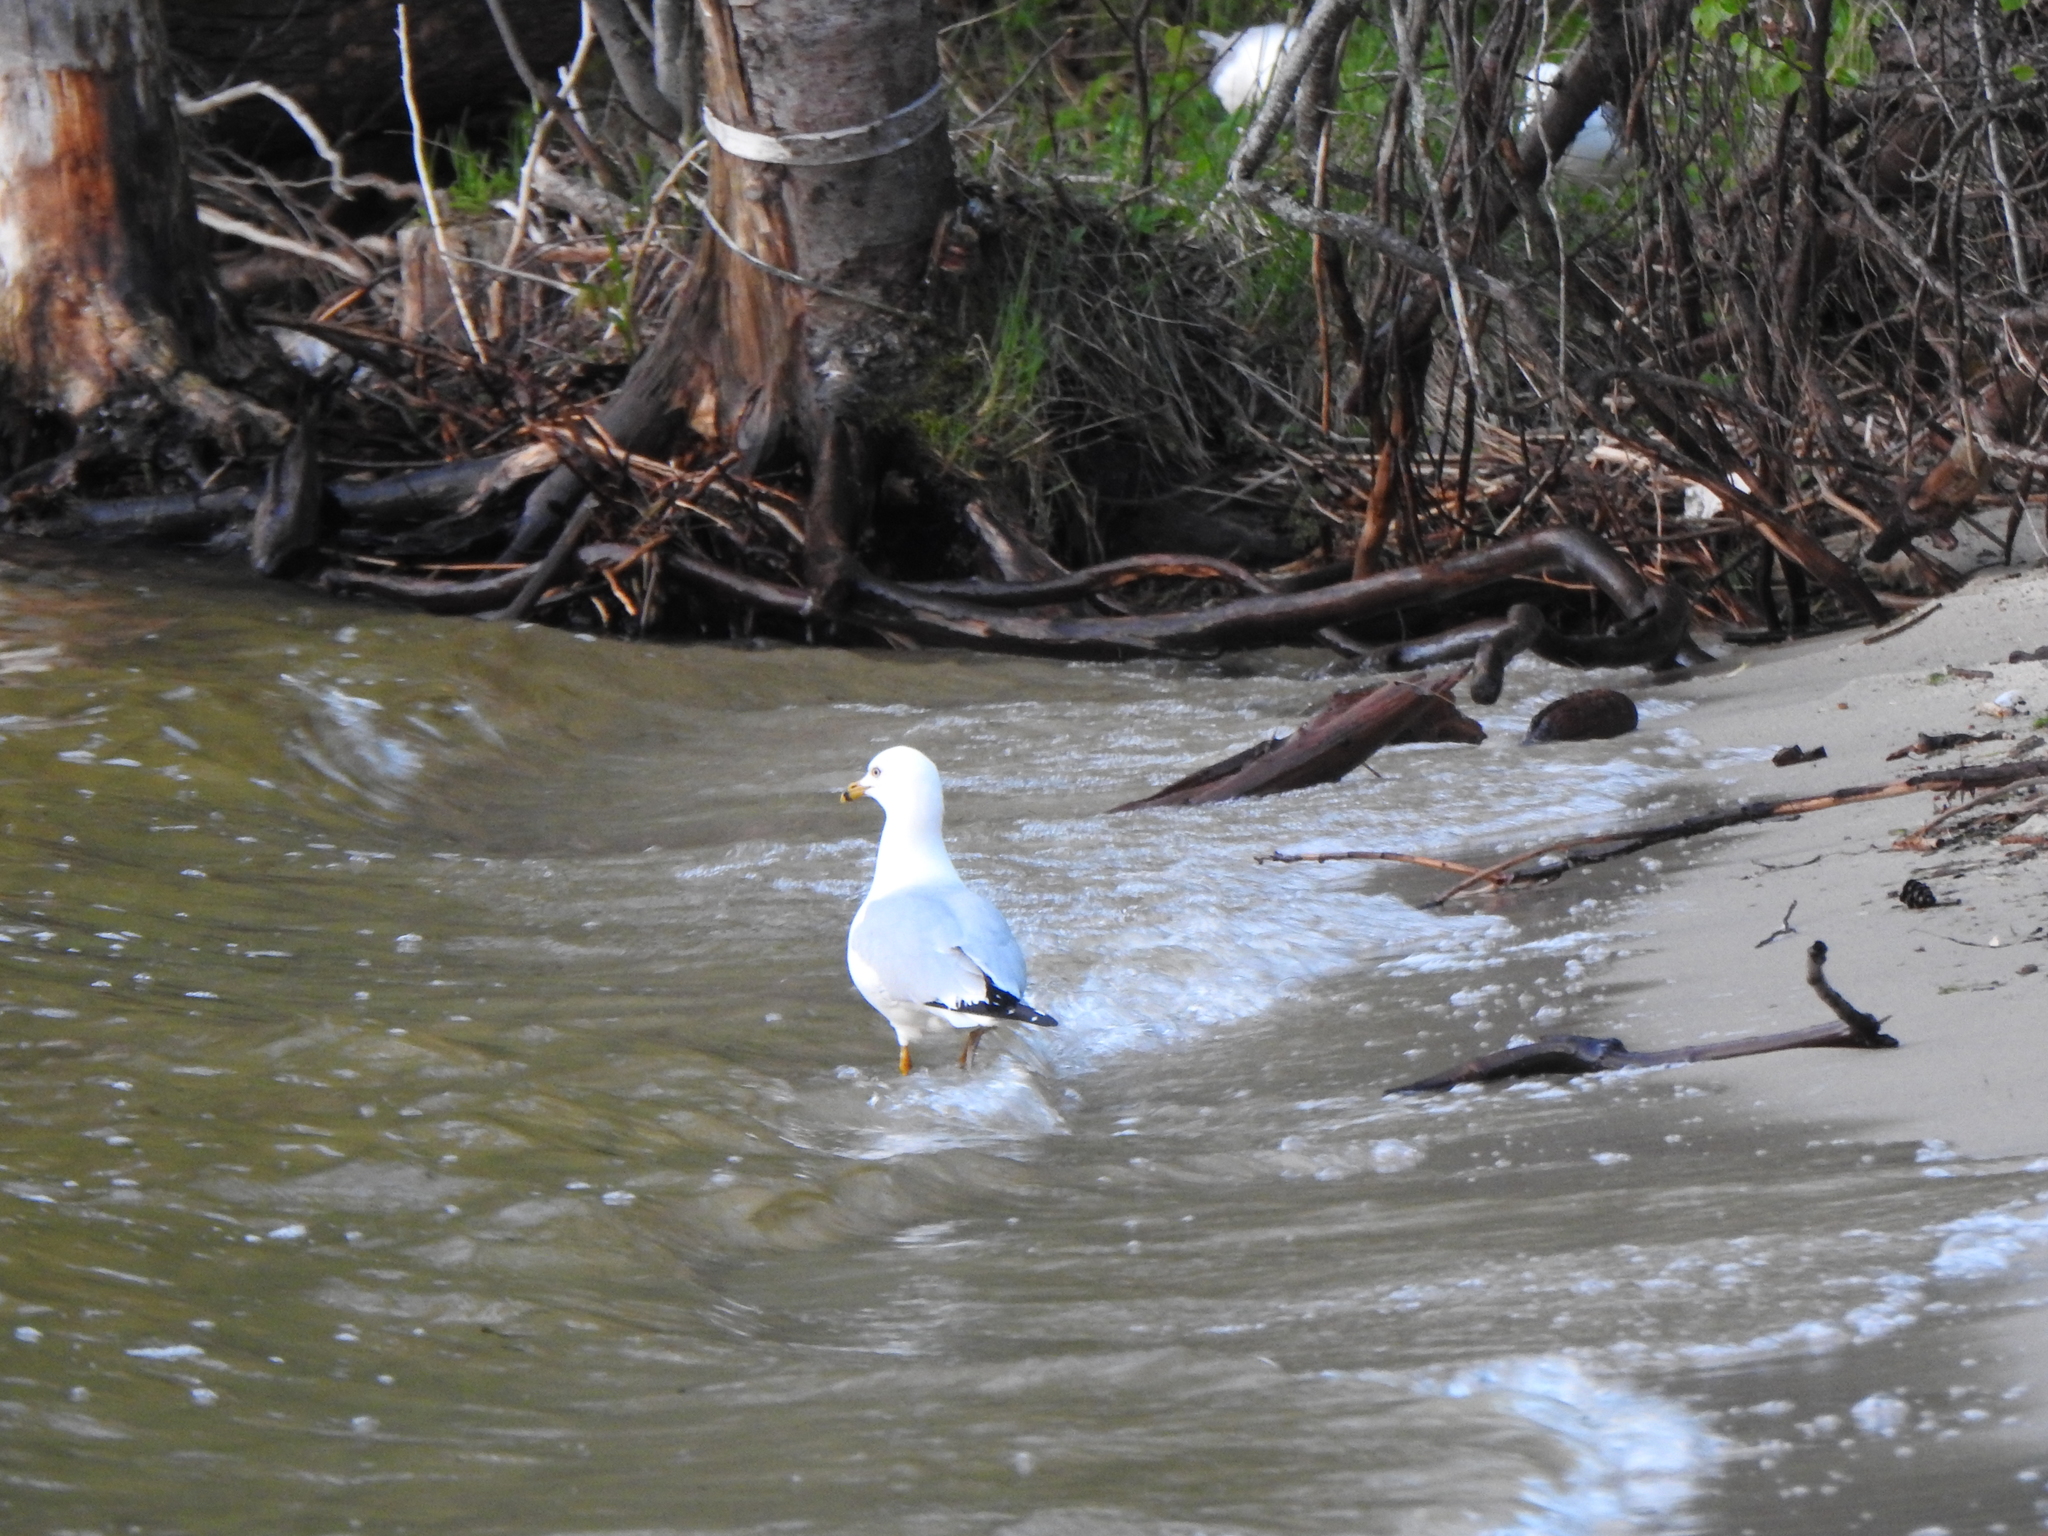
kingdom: Animalia
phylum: Chordata
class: Aves
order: Charadriiformes
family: Laridae
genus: Larus
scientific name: Larus delawarensis
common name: Ring-billed gull
